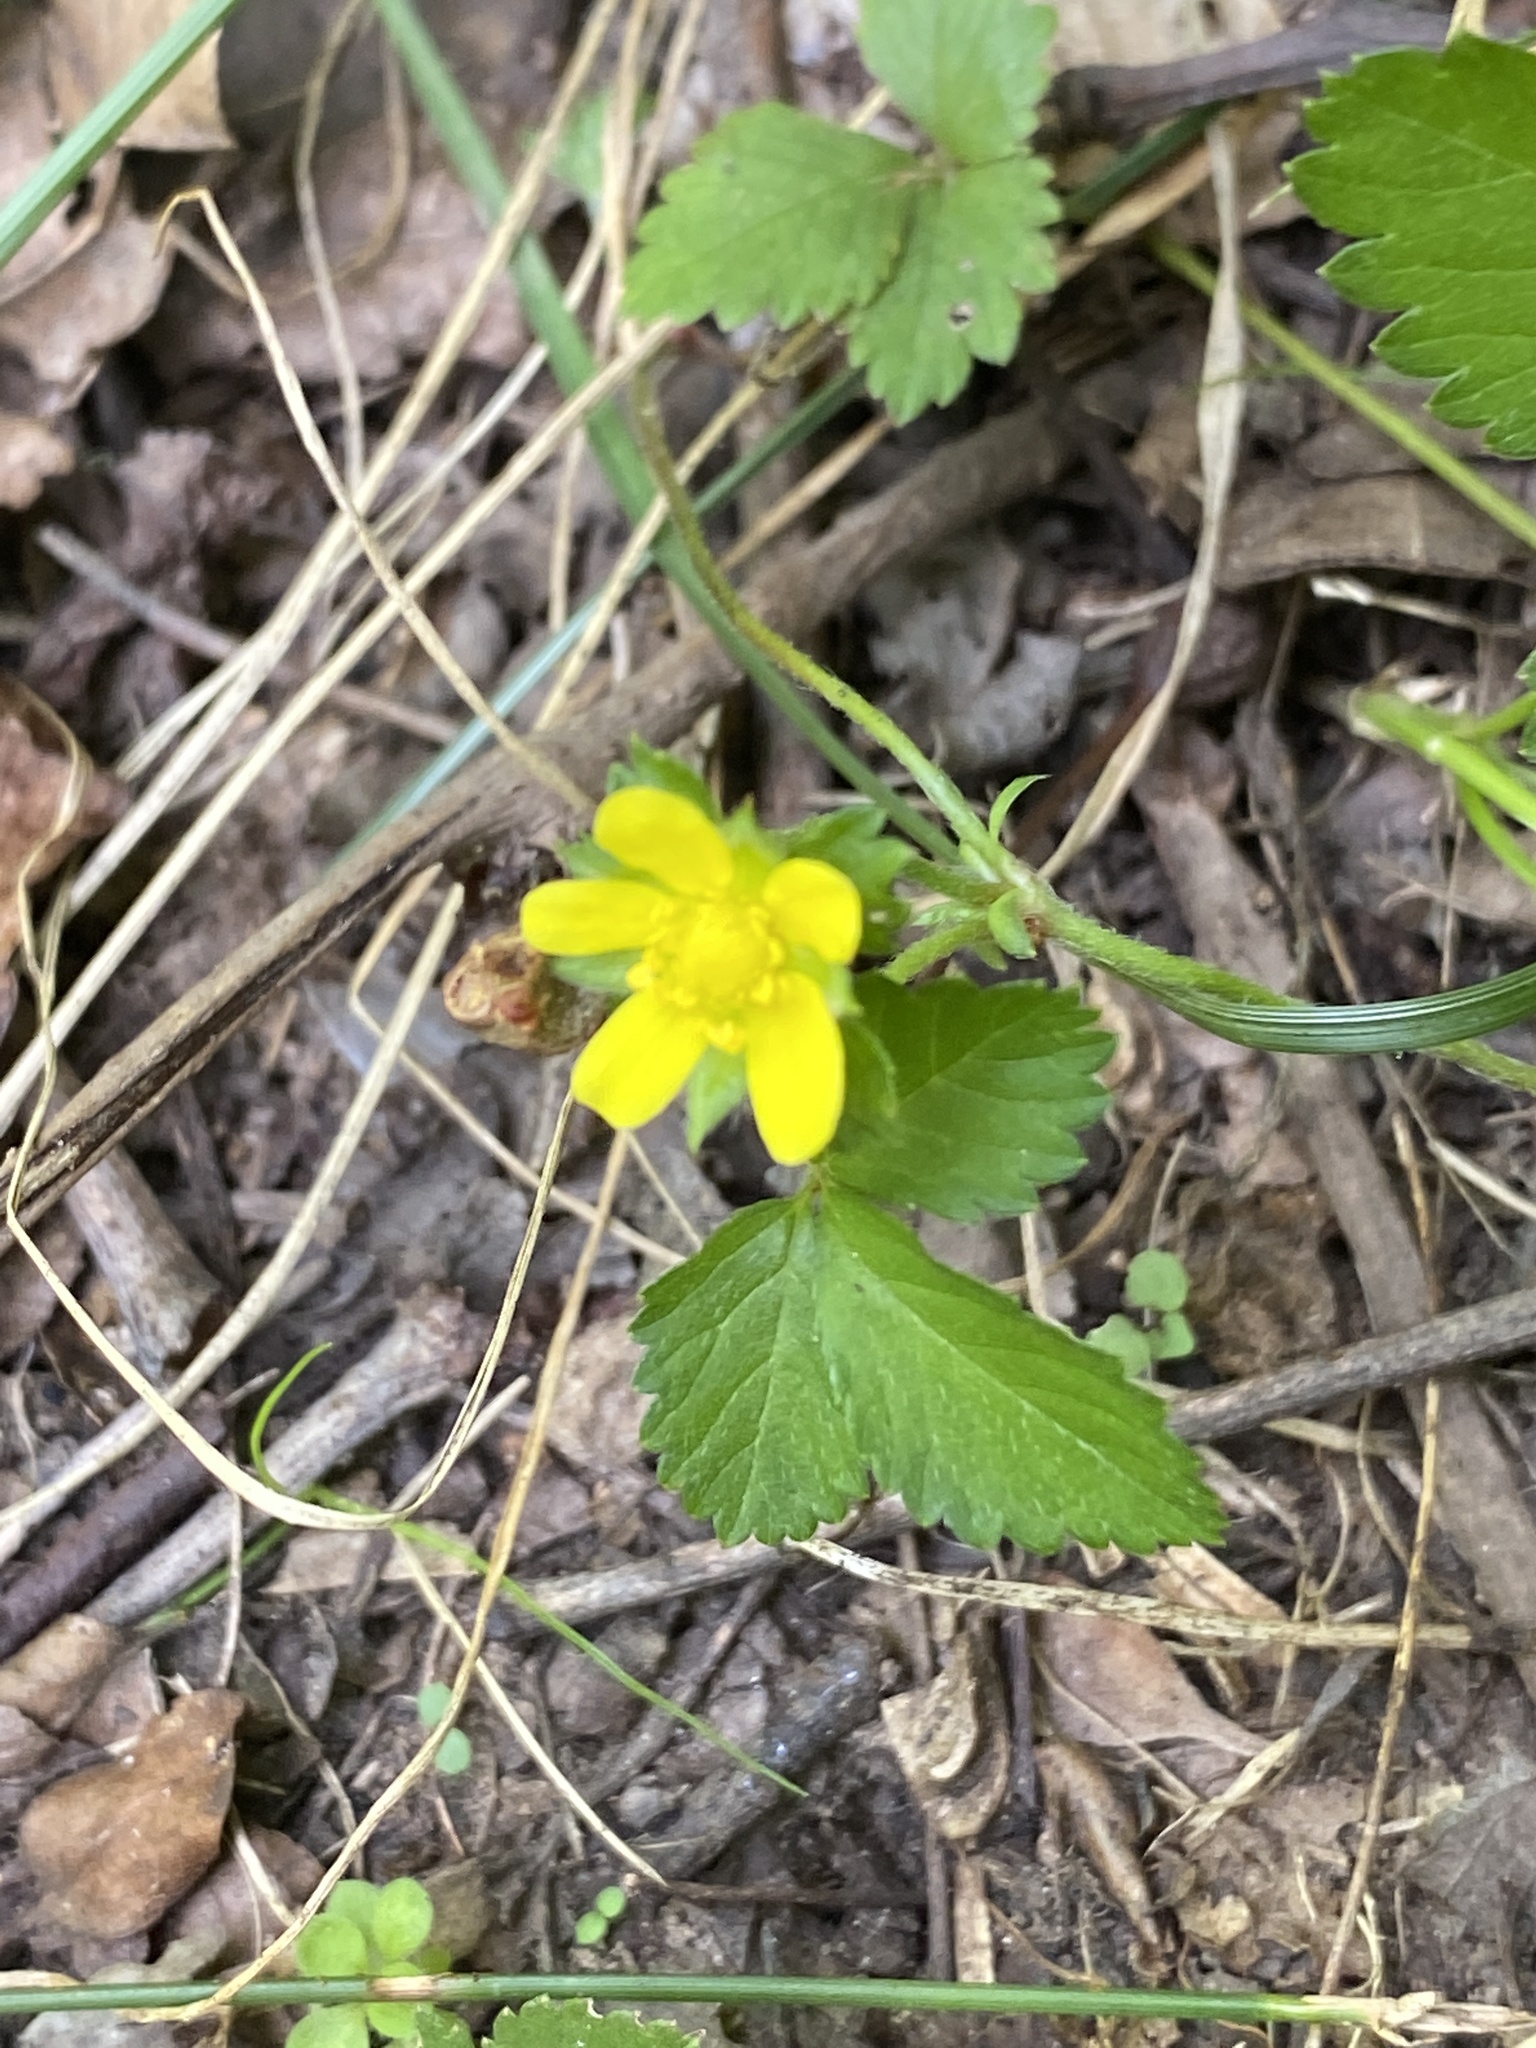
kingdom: Plantae
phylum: Tracheophyta
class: Magnoliopsida
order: Rosales
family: Rosaceae
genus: Potentilla
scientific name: Potentilla indica
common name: Yellow-flowered strawberry
